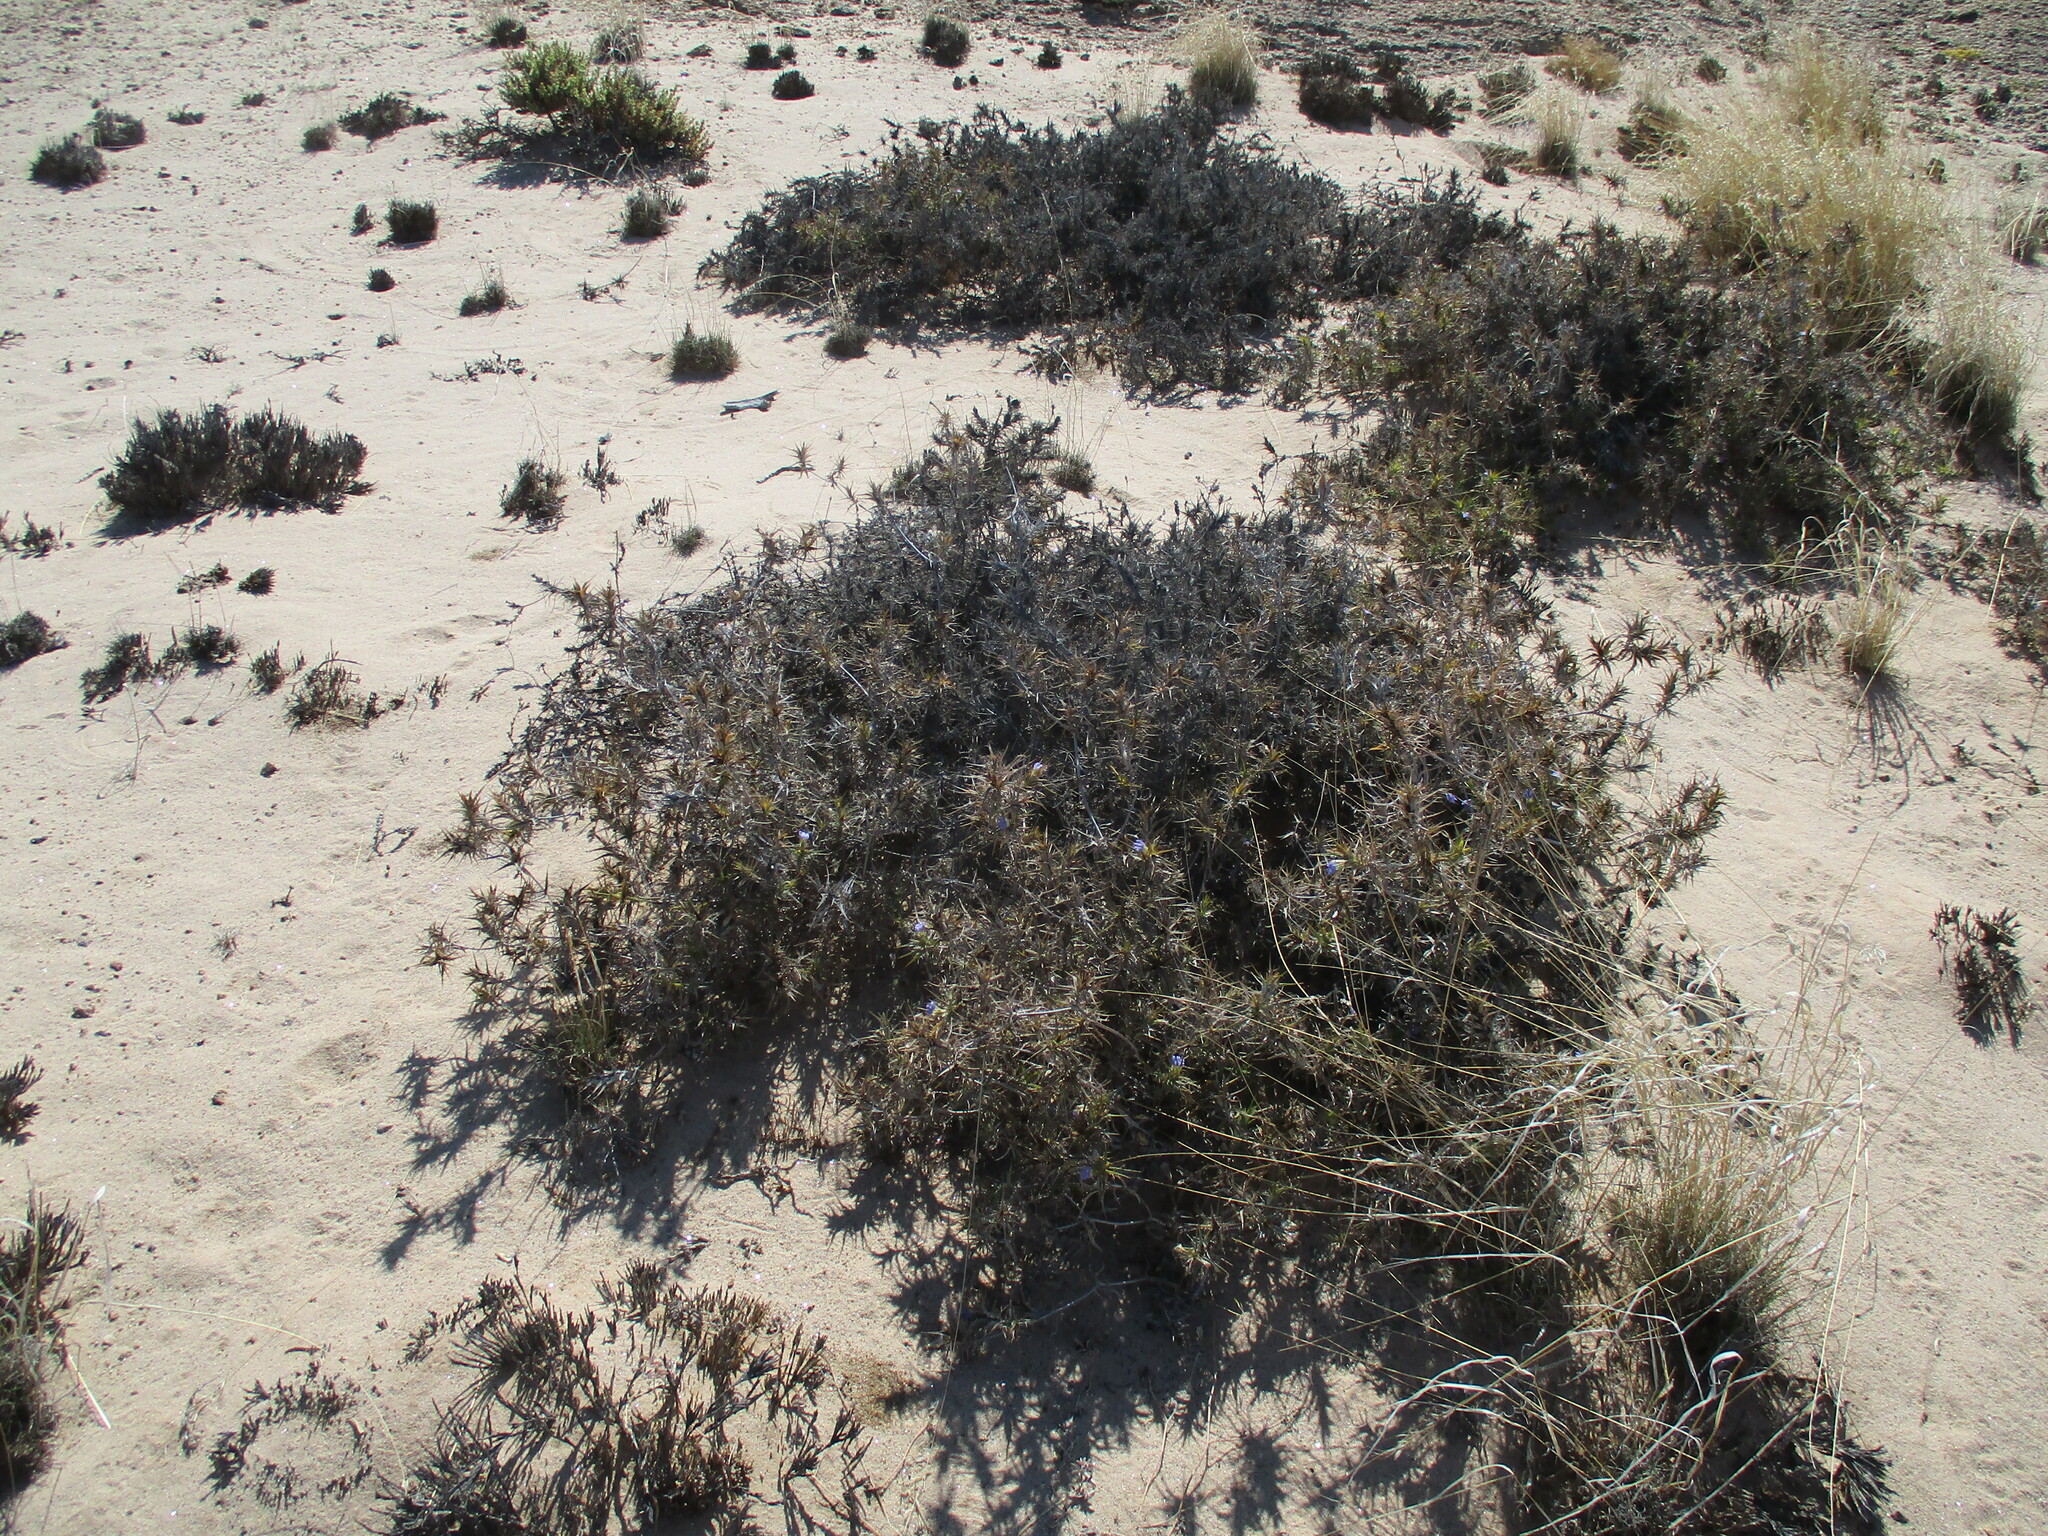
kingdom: Plantae
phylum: Tracheophyta
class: Magnoliopsida
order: Lamiales
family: Acanthaceae
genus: Blepharis
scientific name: Blepharis obmitrata
